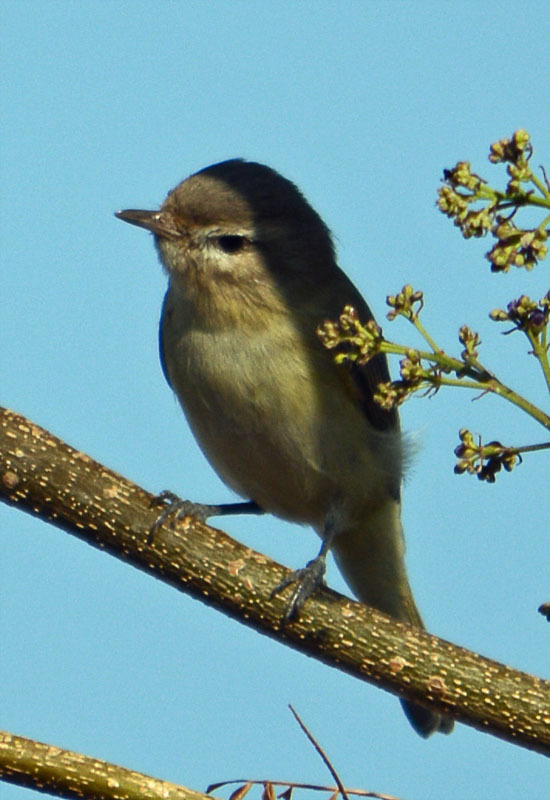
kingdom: Animalia
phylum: Chordata
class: Aves
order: Passeriformes
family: Vireonidae
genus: Vireo
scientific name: Vireo gilvus
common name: Warbling vireo
